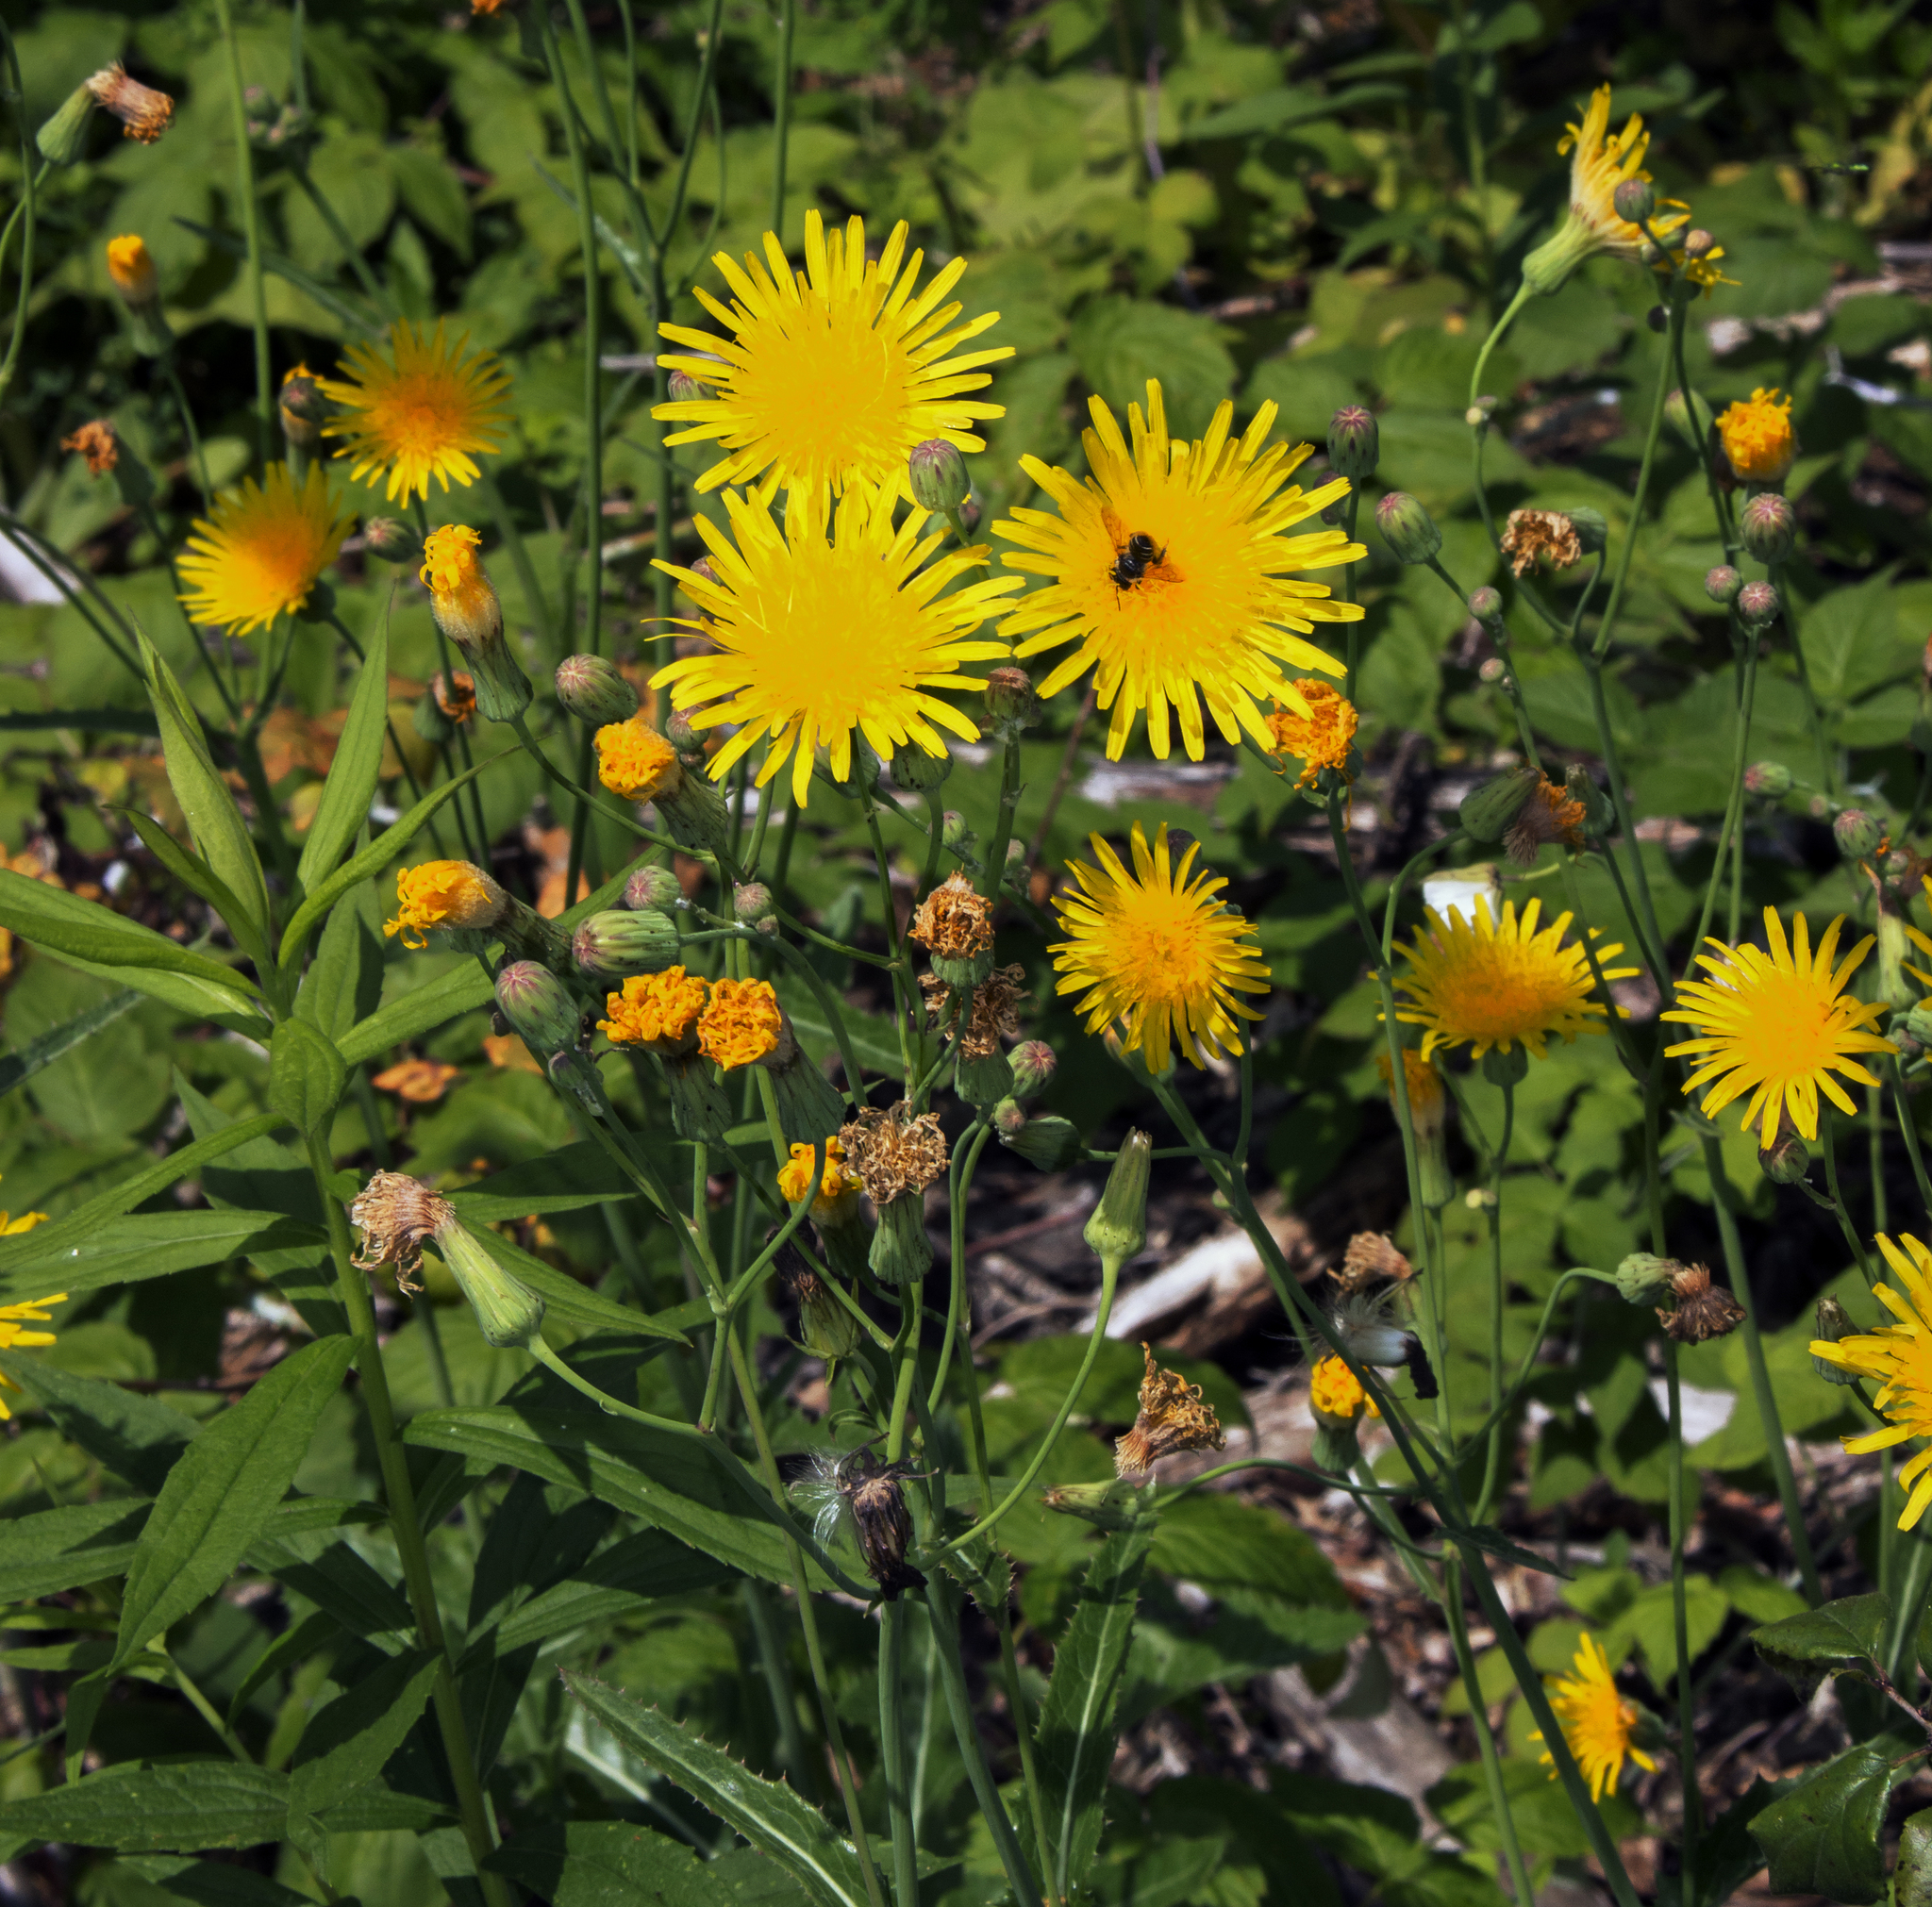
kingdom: Plantae
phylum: Tracheophyta
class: Magnoliopsida
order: Asterales
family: Asteraceae
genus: Sonchus
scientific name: Sonchus arvensis
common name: Perennial sow-thistle
